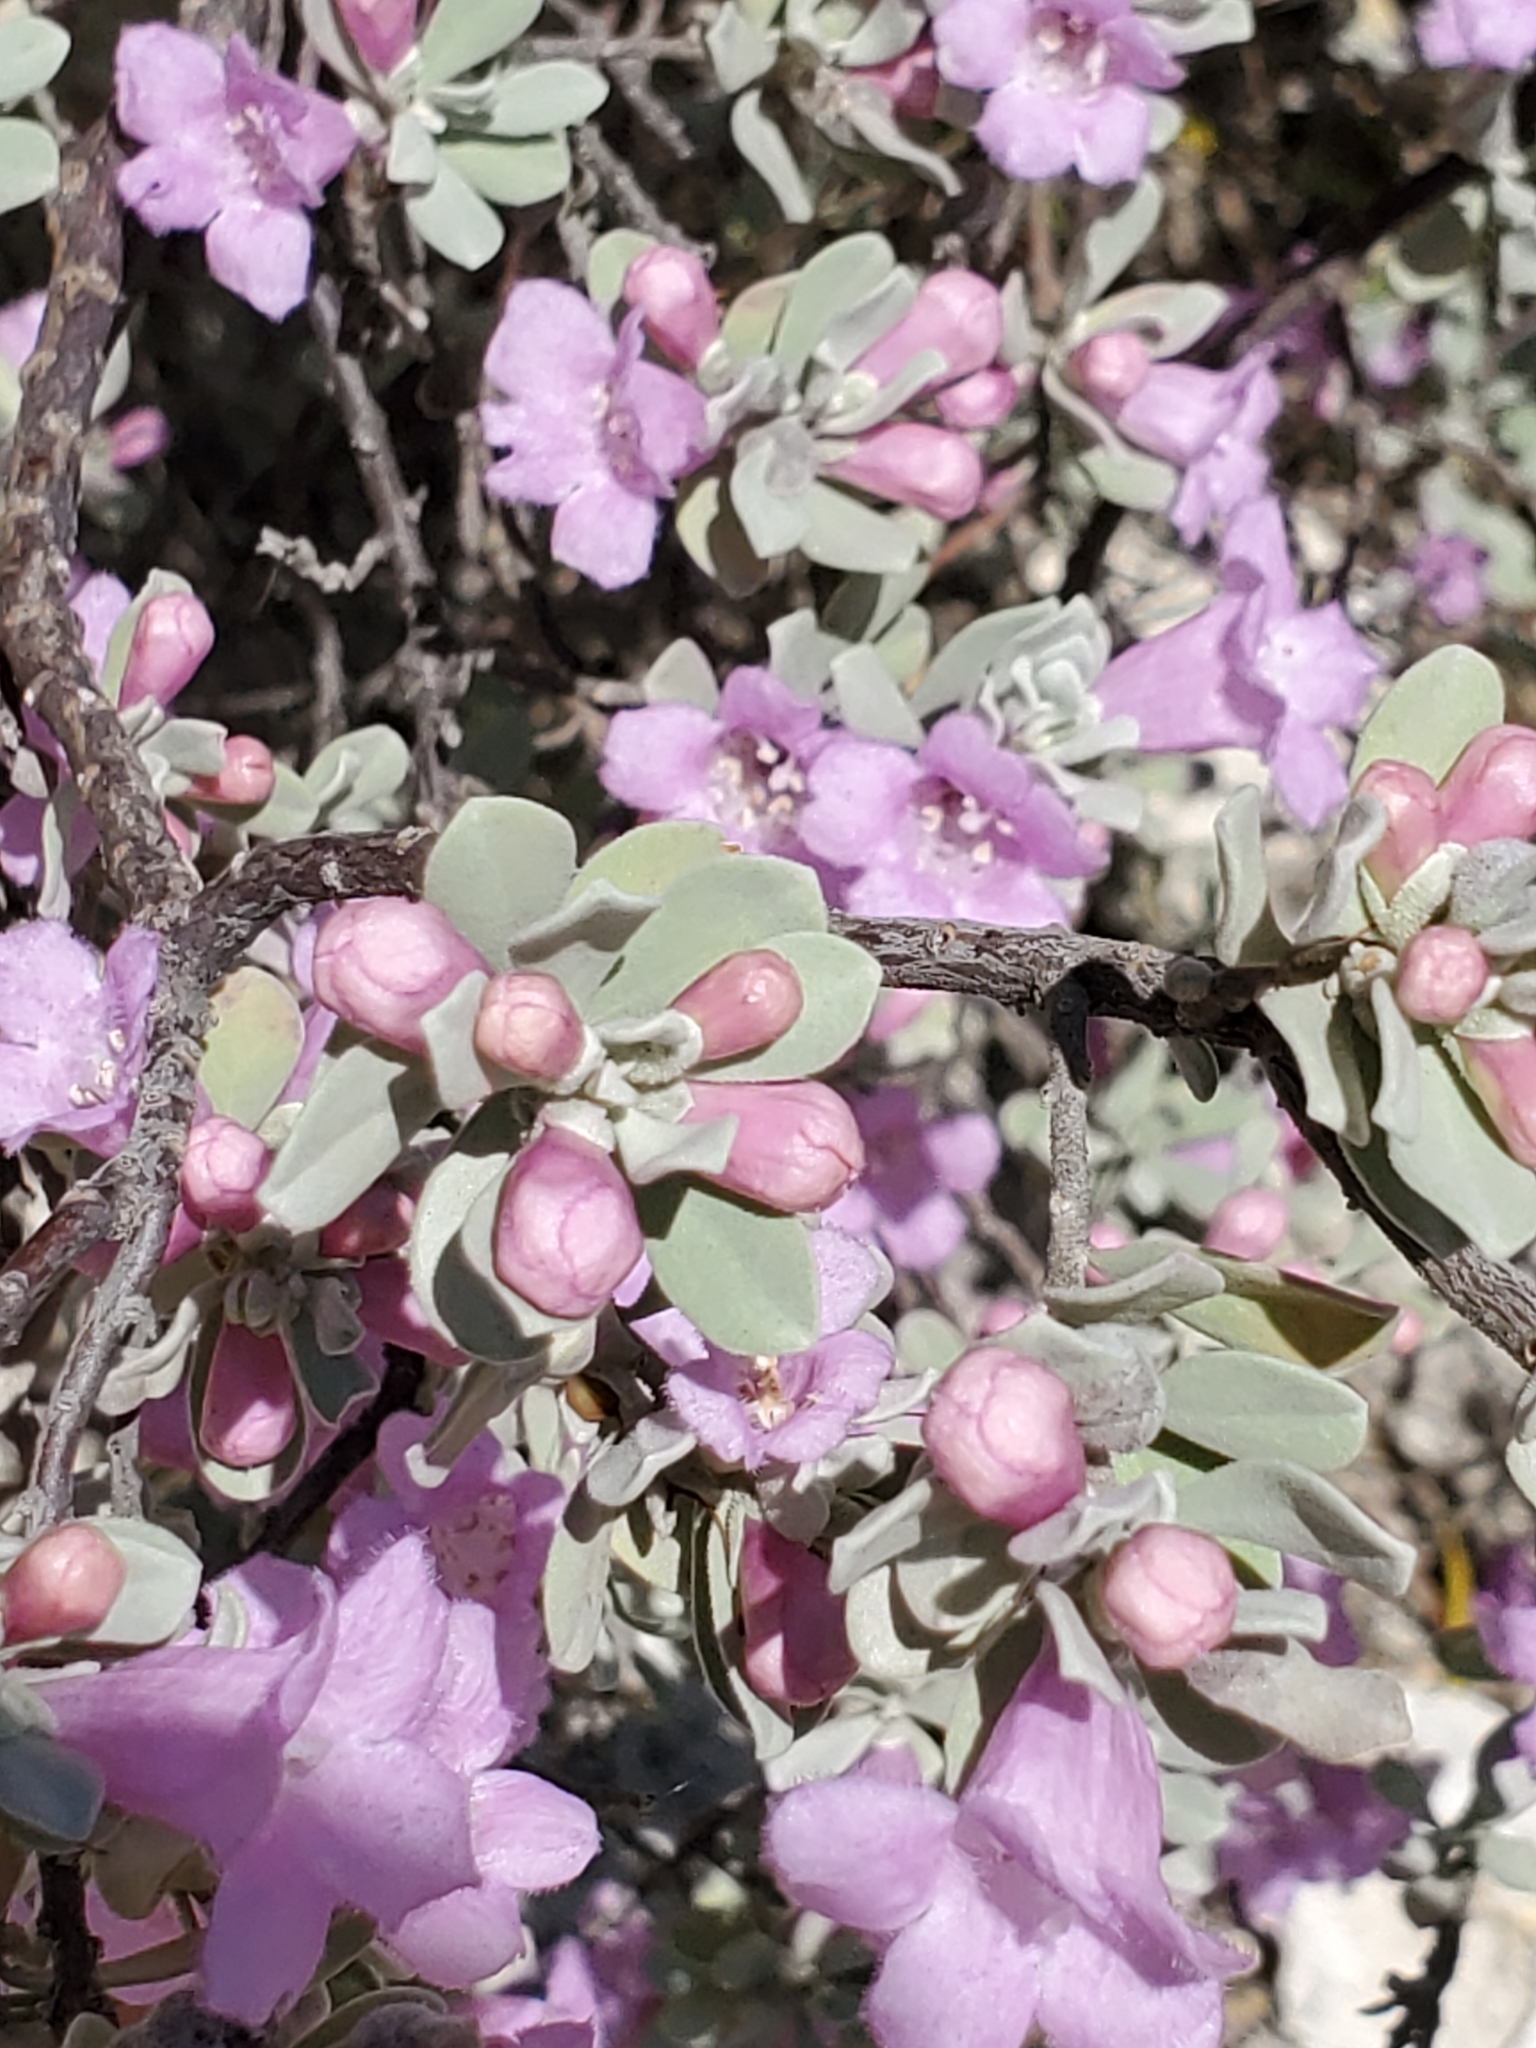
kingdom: Plantae
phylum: Tracheophyta
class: Magnoliopsida
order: Lamiales
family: Scrophulariaceae
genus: Leucophyllum
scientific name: Leucophyllum frutescens
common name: Texas silverleaf
